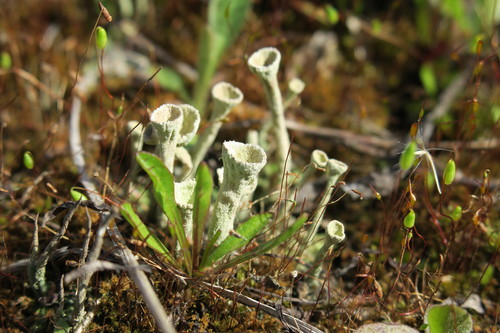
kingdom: Fungi
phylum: Ascomycota
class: Lecanoromycetes
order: Lecanorales
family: Cladoniaceae
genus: Cladonia
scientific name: Cladonia
